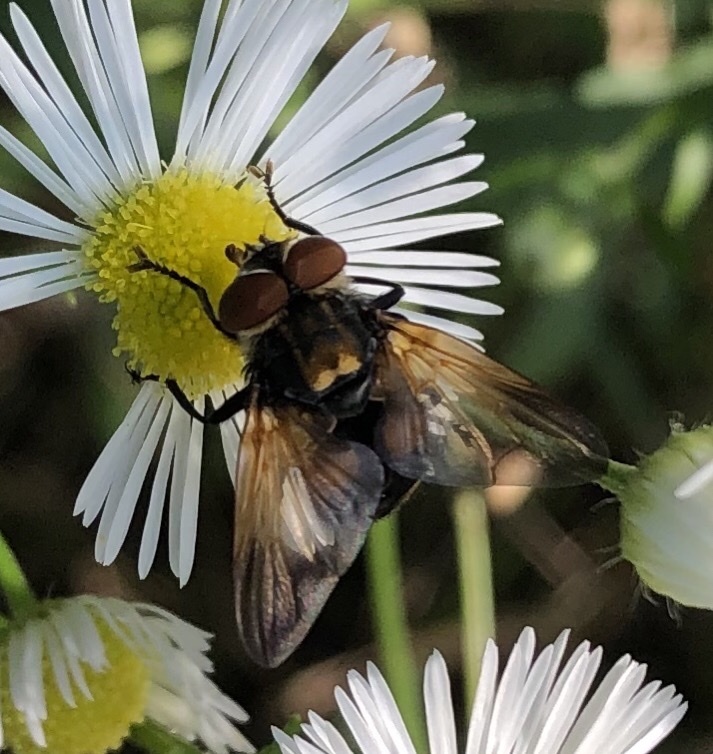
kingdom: Animalia
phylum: Arthropoda
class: Insecta
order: Diptera
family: Tachinidae
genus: Phasia
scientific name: Phasia aurigera
